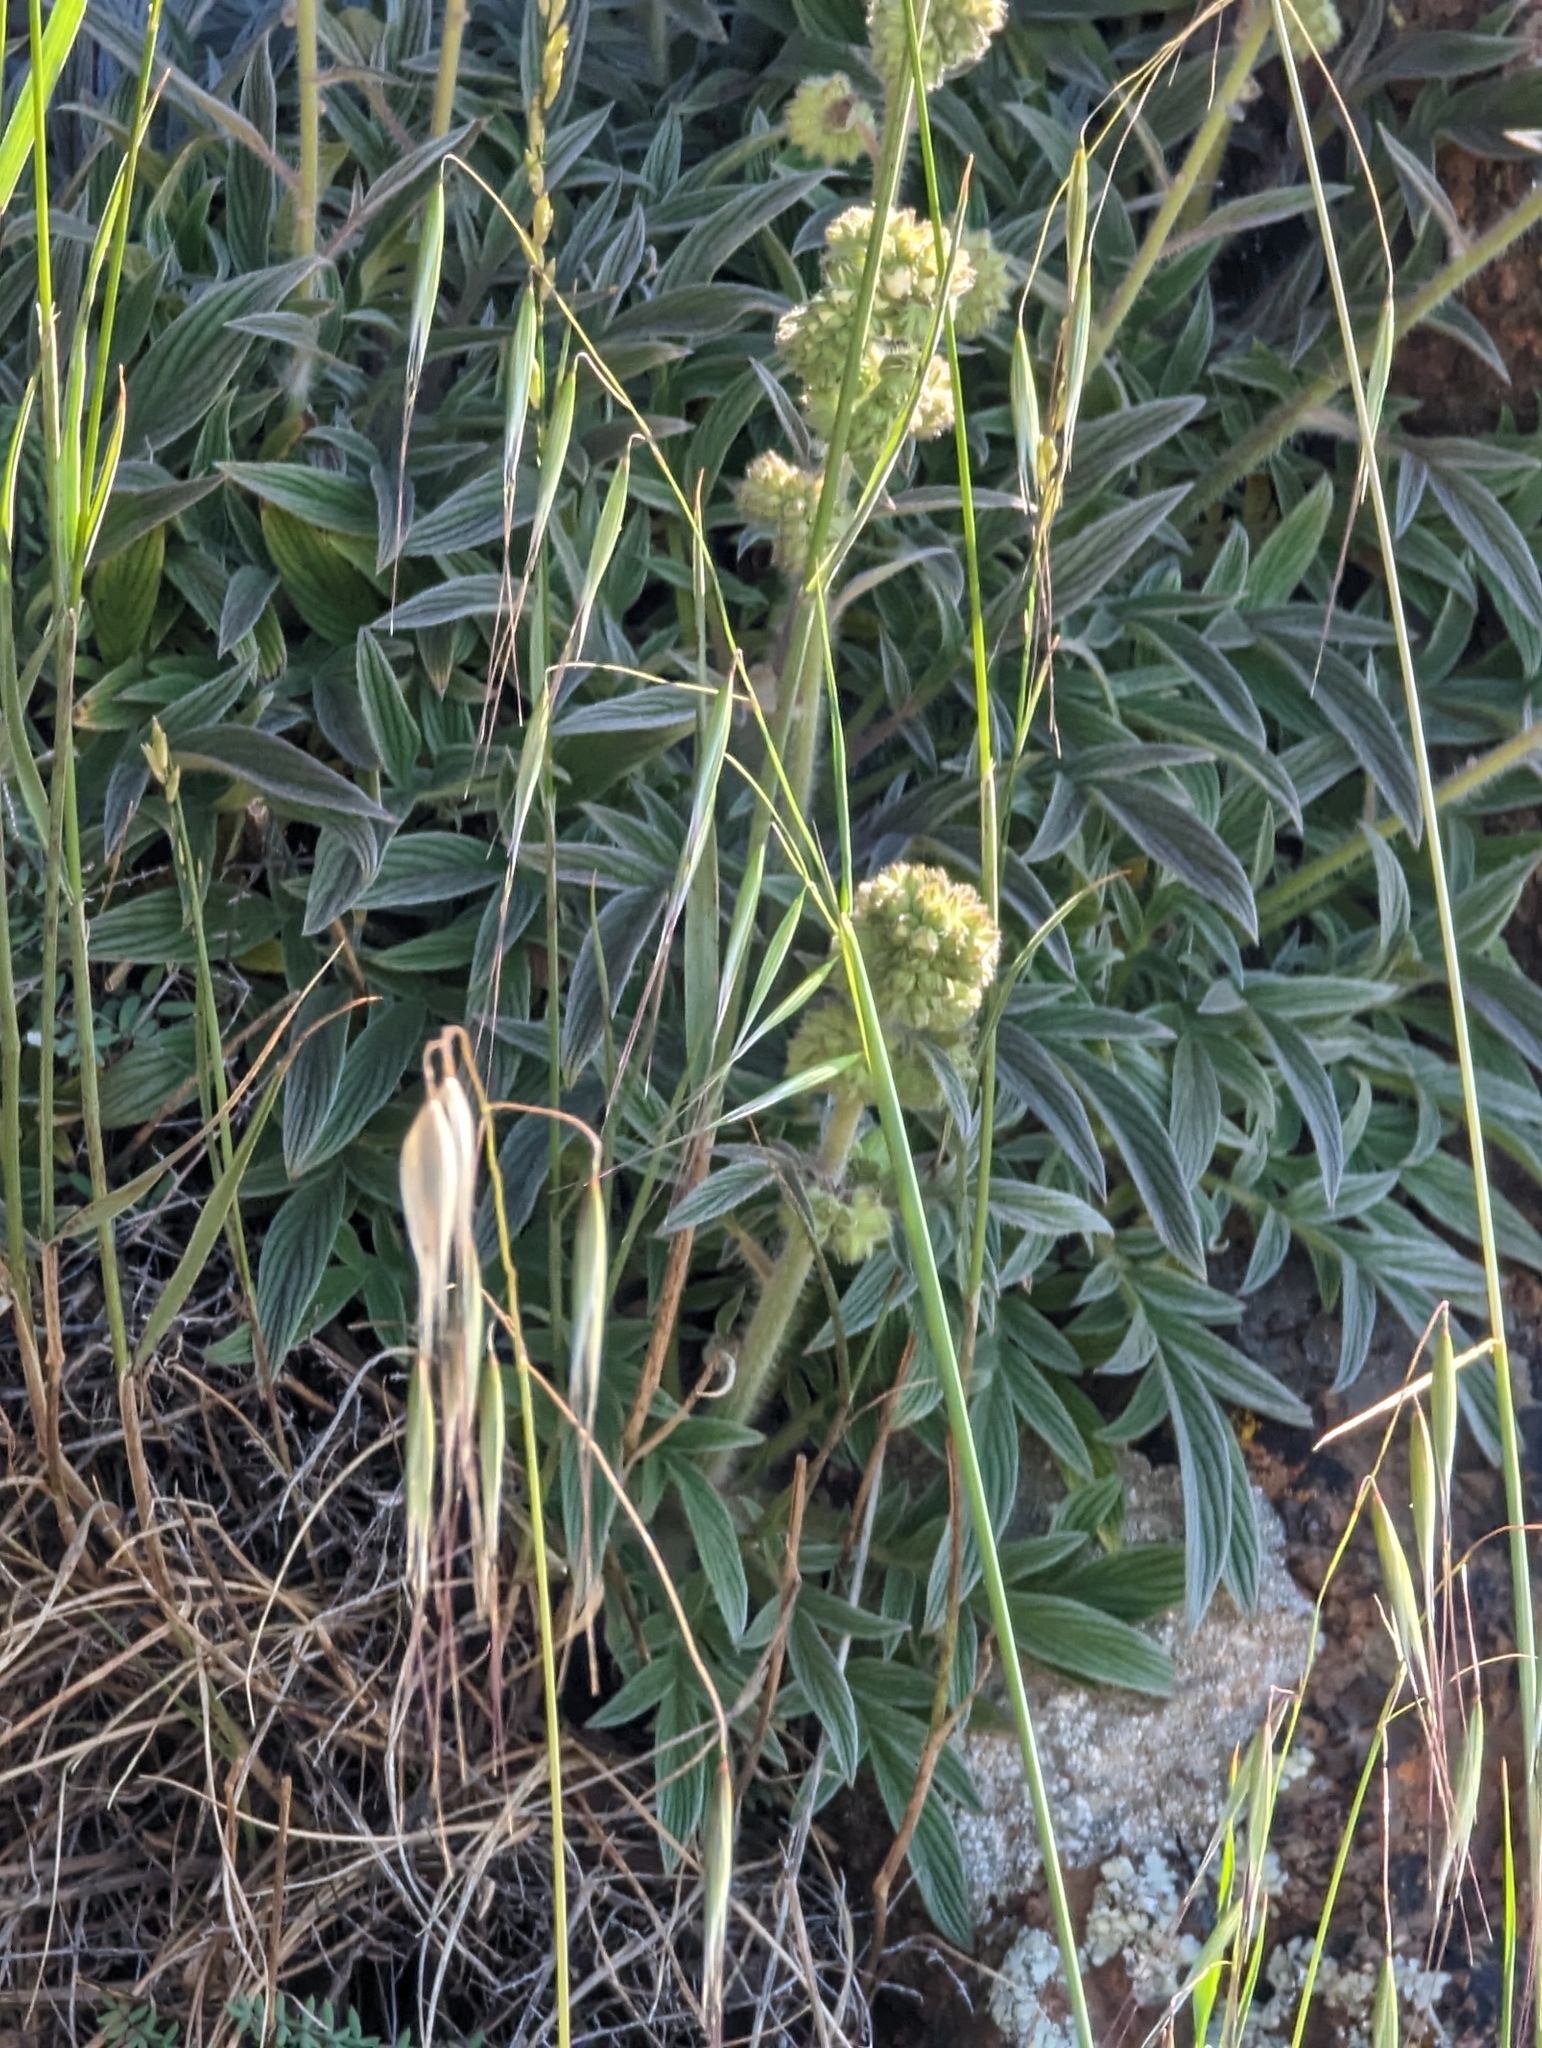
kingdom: Plantae
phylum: Tracheophyta
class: Magnoliopsida
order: Boraginales
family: Hydrophyllaceae
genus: Phacelia
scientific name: Phacelia imbricata
